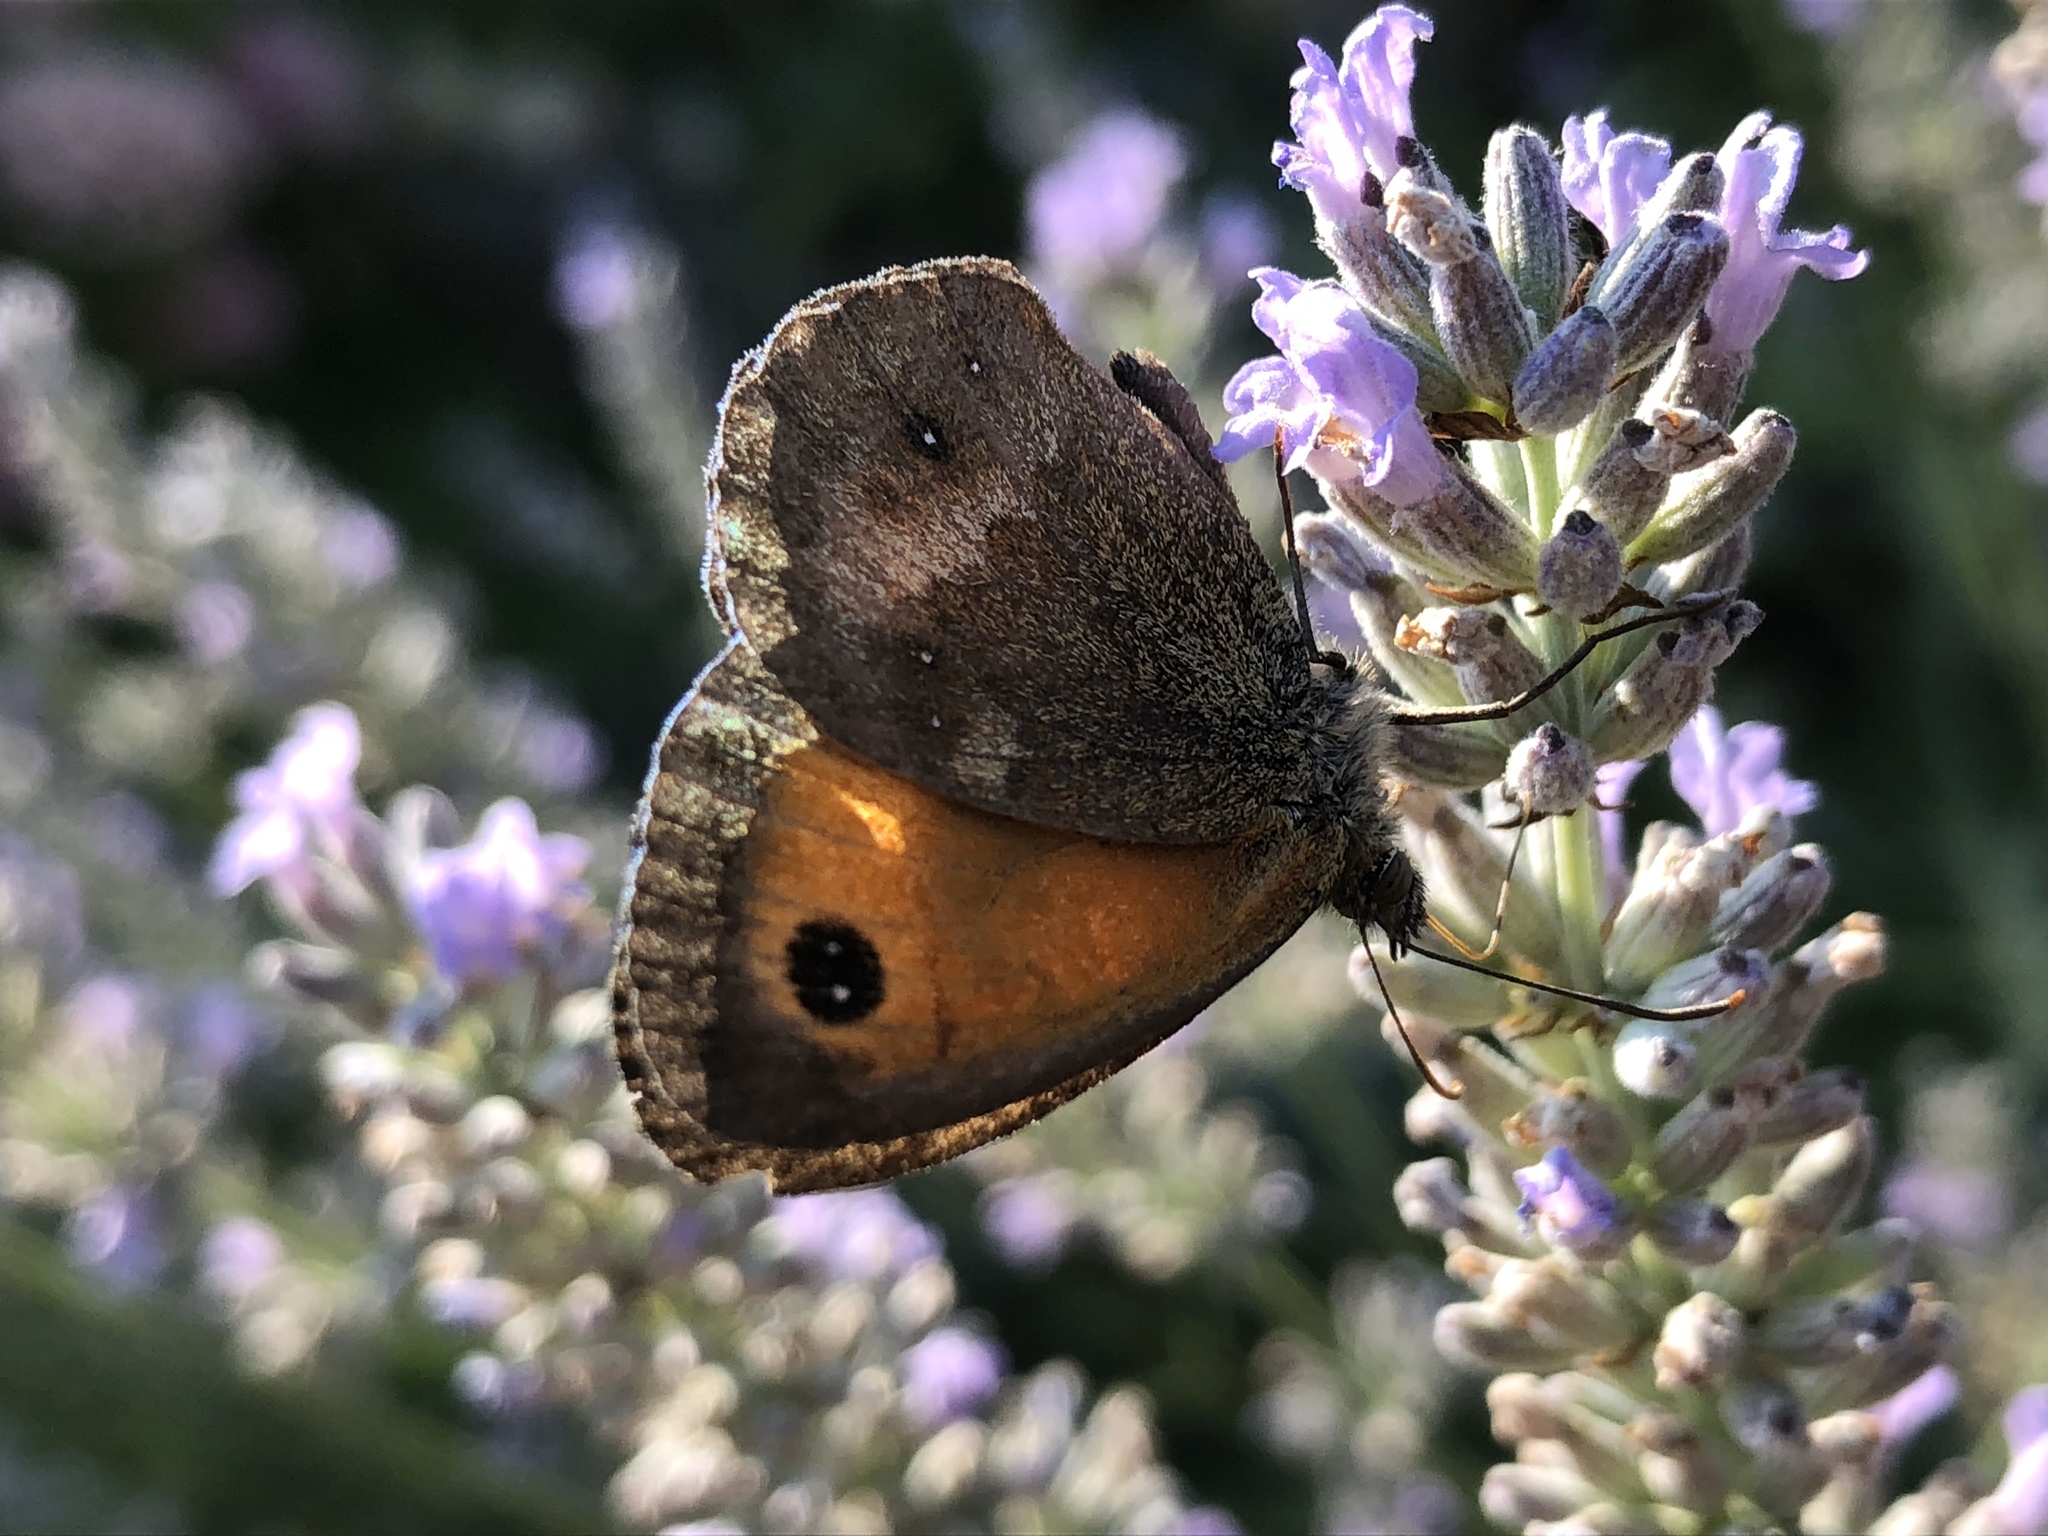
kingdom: Animalia
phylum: Arthropoda
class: Insecta
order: Lepidoptera
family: Nymphalidae
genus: Pyronia
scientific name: Pyronia tithonus
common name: Gatekeeper
